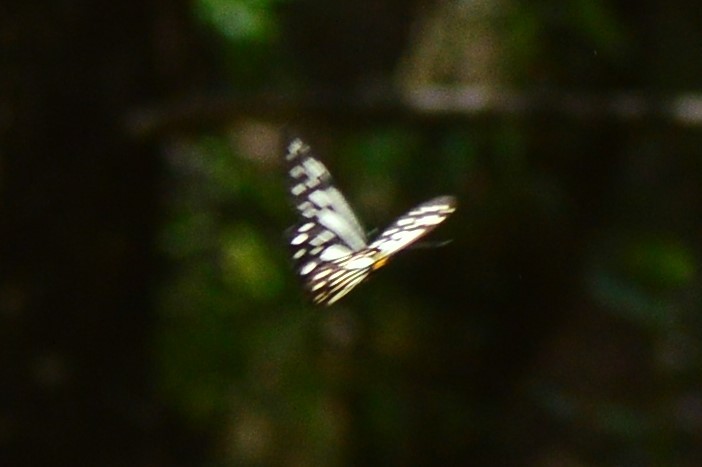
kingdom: Animalia
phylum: Arthropoda
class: Insecta
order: Lepidoptera
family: Pieridae
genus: Aporia
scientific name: Aporia agathon
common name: Great blackvein
